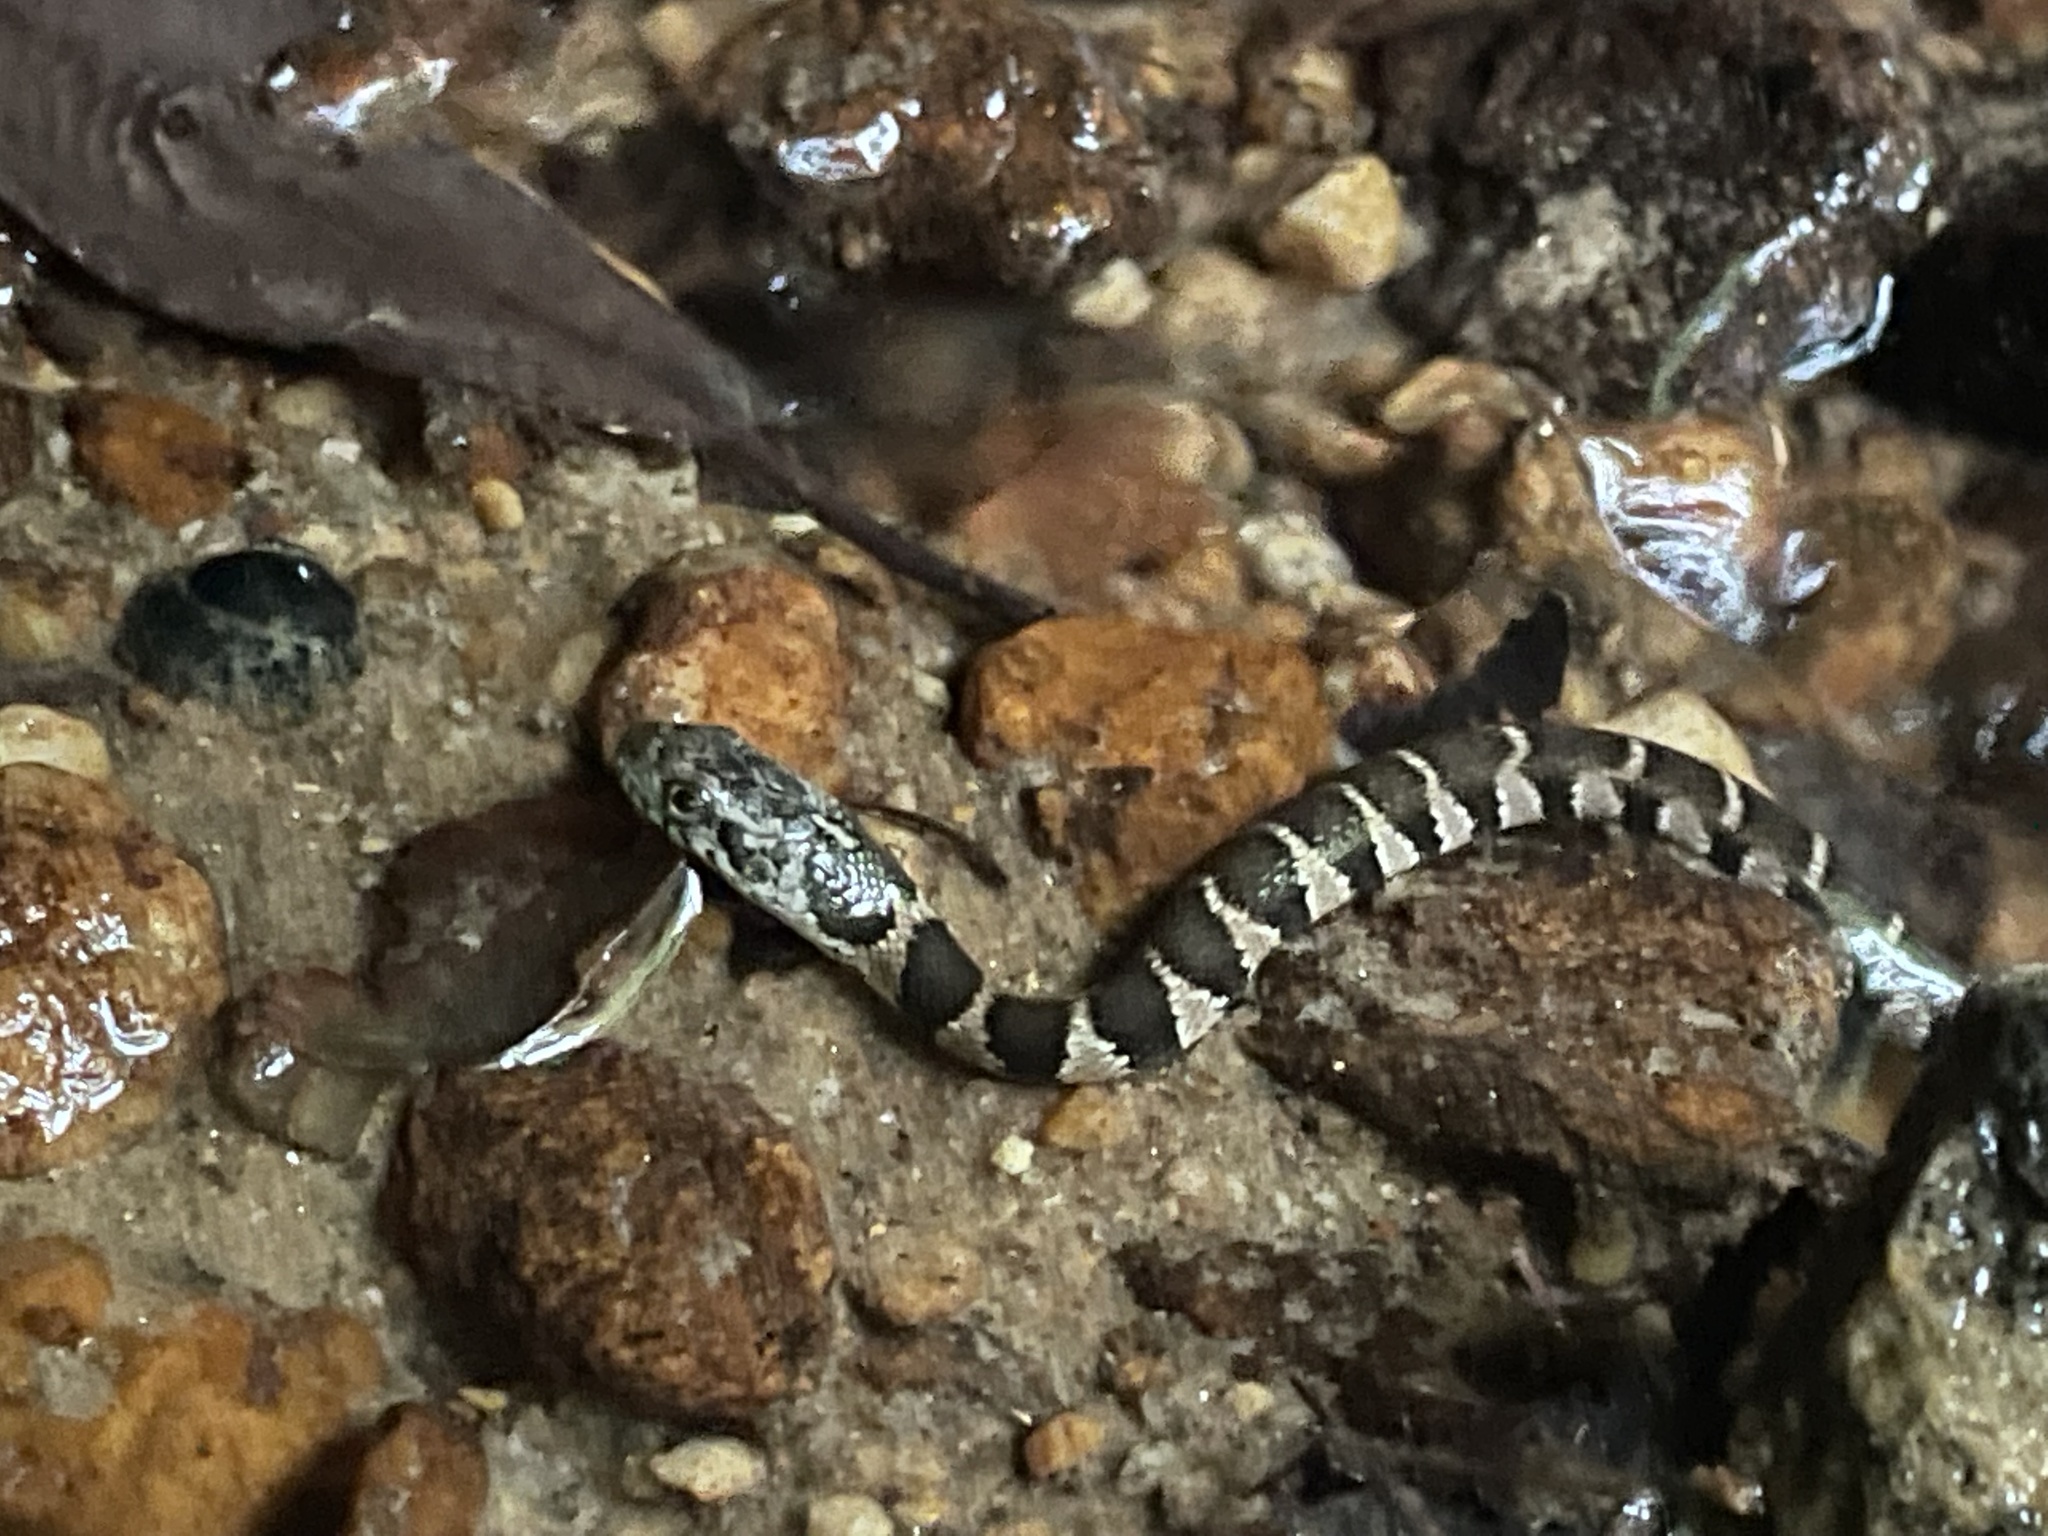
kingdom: Animalia
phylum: Chordata
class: Squamata
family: Colubridae
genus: Nerodia
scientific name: Nerodia sipedon
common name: Northern water snake
